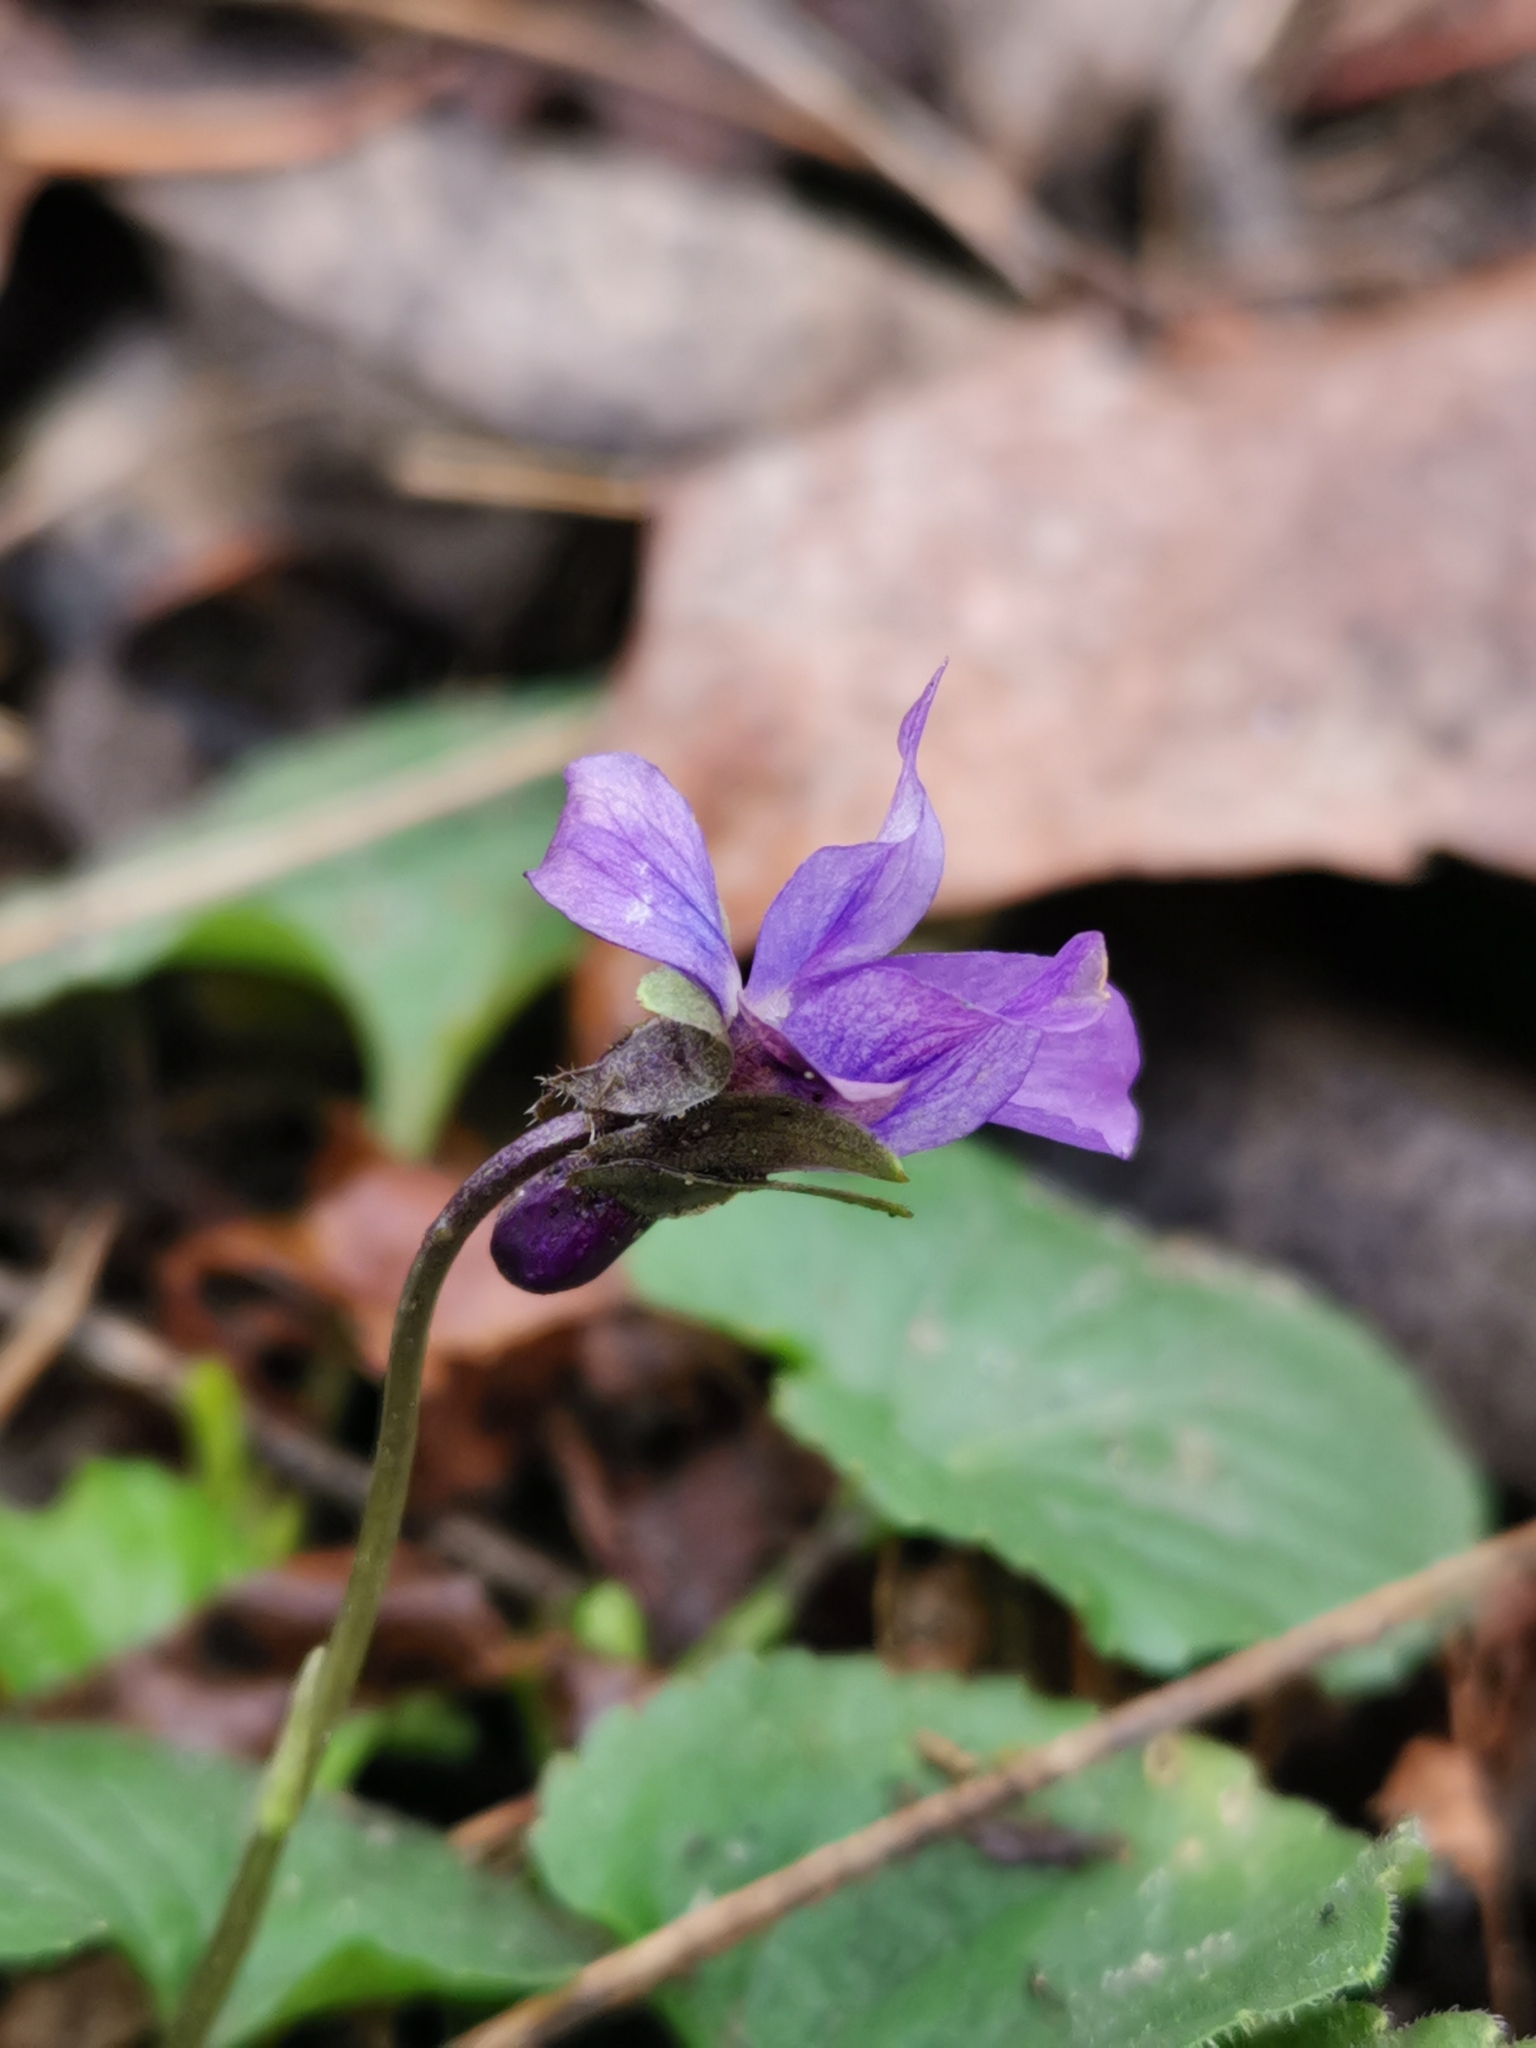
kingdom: Plantae
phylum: Tracheophyta
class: Magnoliopsida
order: Malpighiales
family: Violaceae
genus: Viola
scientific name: Viola odorata
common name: Sweet violet
